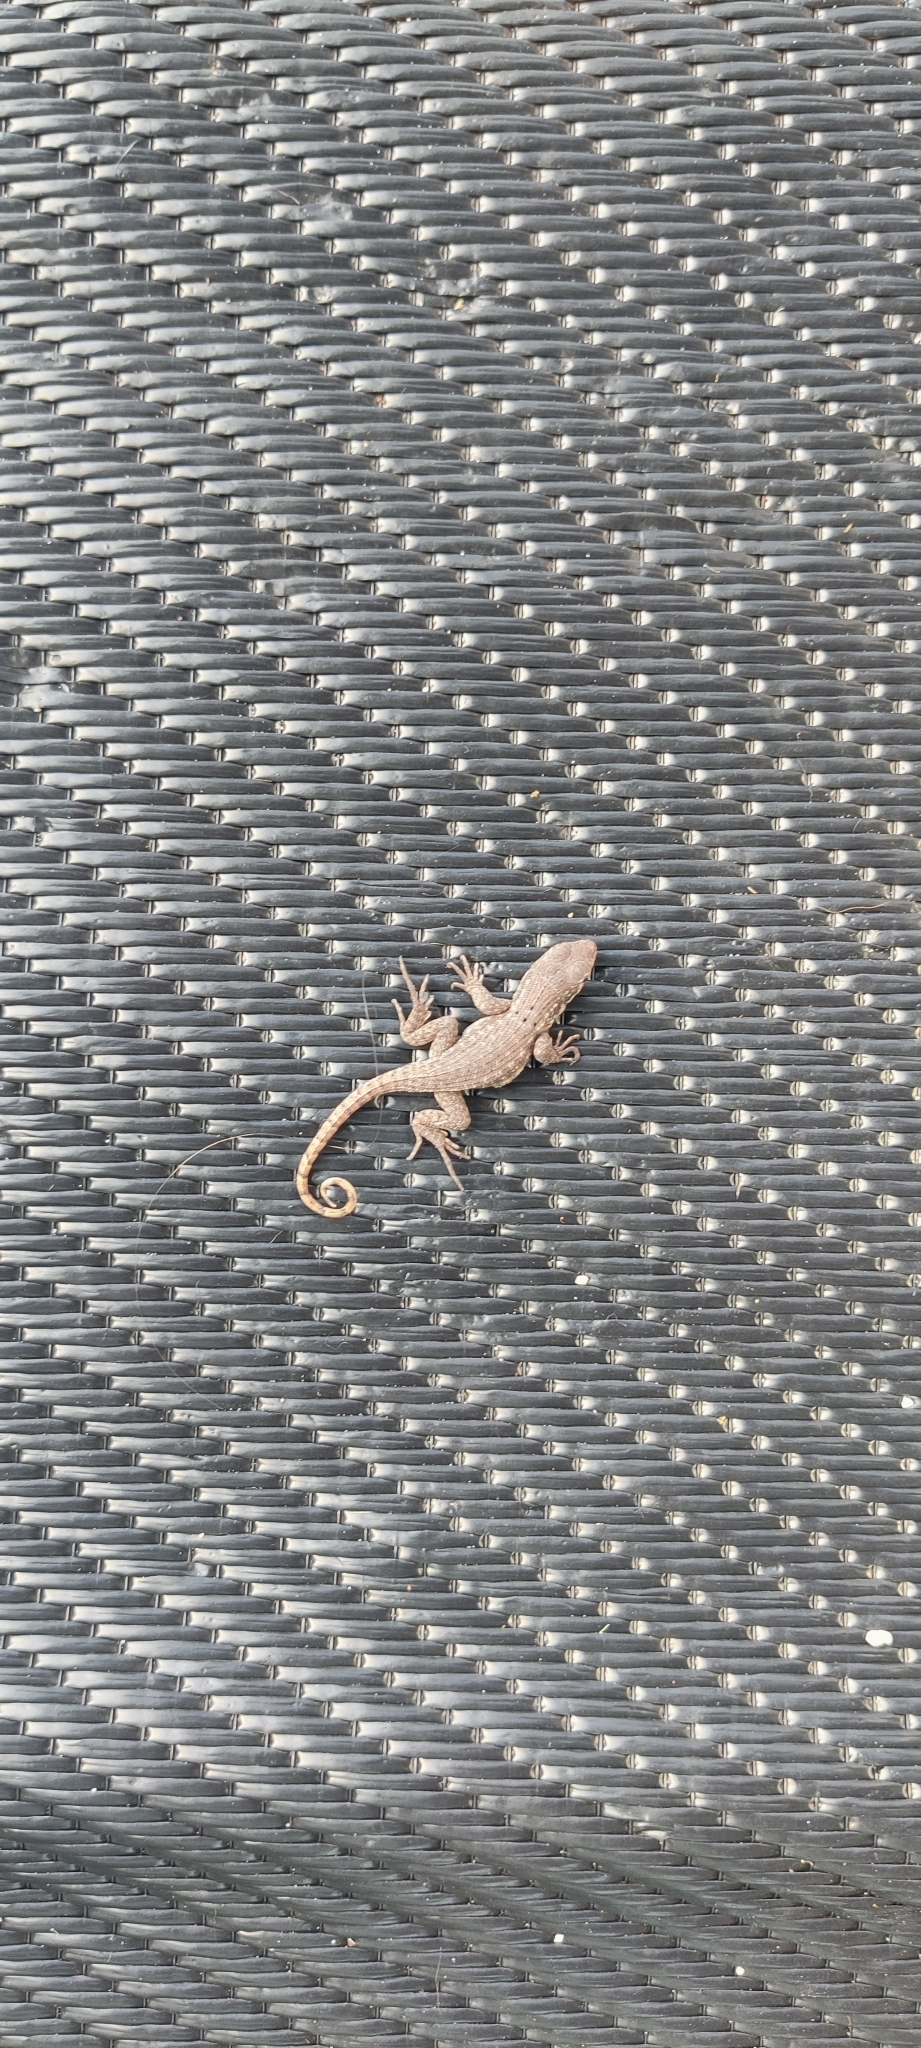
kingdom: Animalia
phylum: Chordata
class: Squamata
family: Leiocephalidae
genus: Leiocephalus
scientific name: Leiocephalus carinatus
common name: Northern curly-tailed lizard
